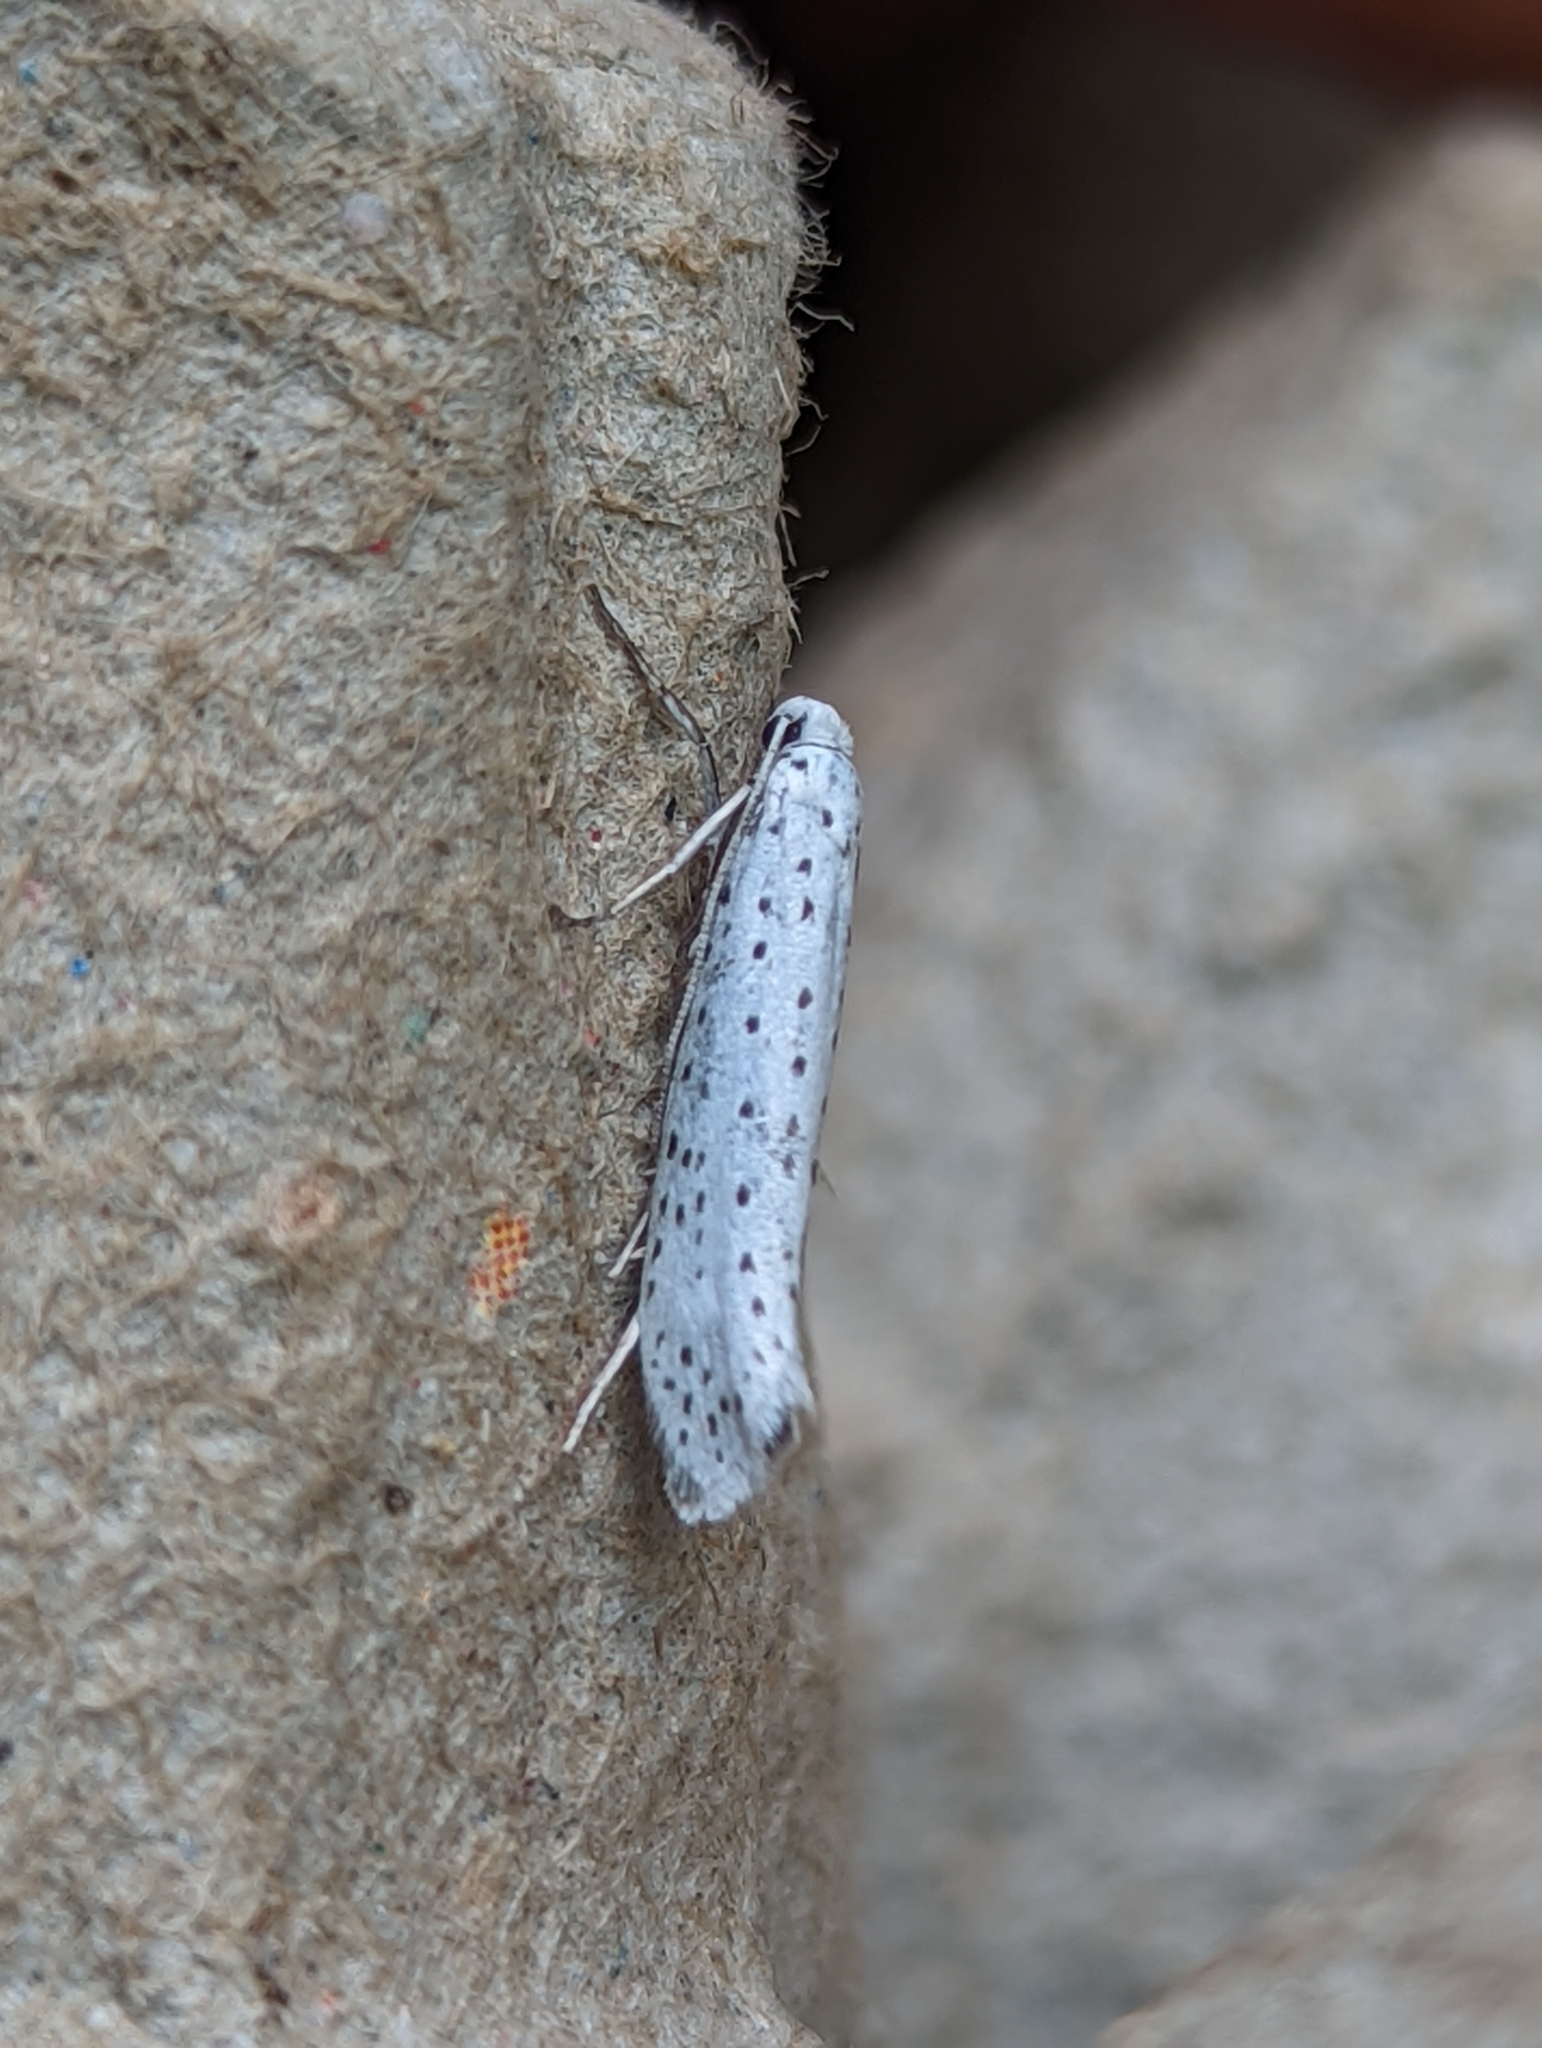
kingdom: Animalia
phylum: Arthropoda
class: Insecta
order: Lepidoptera
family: Yponomeutidae
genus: Yponomeuta
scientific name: Yponomeuta evonymella
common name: Bird-cherry ermine
